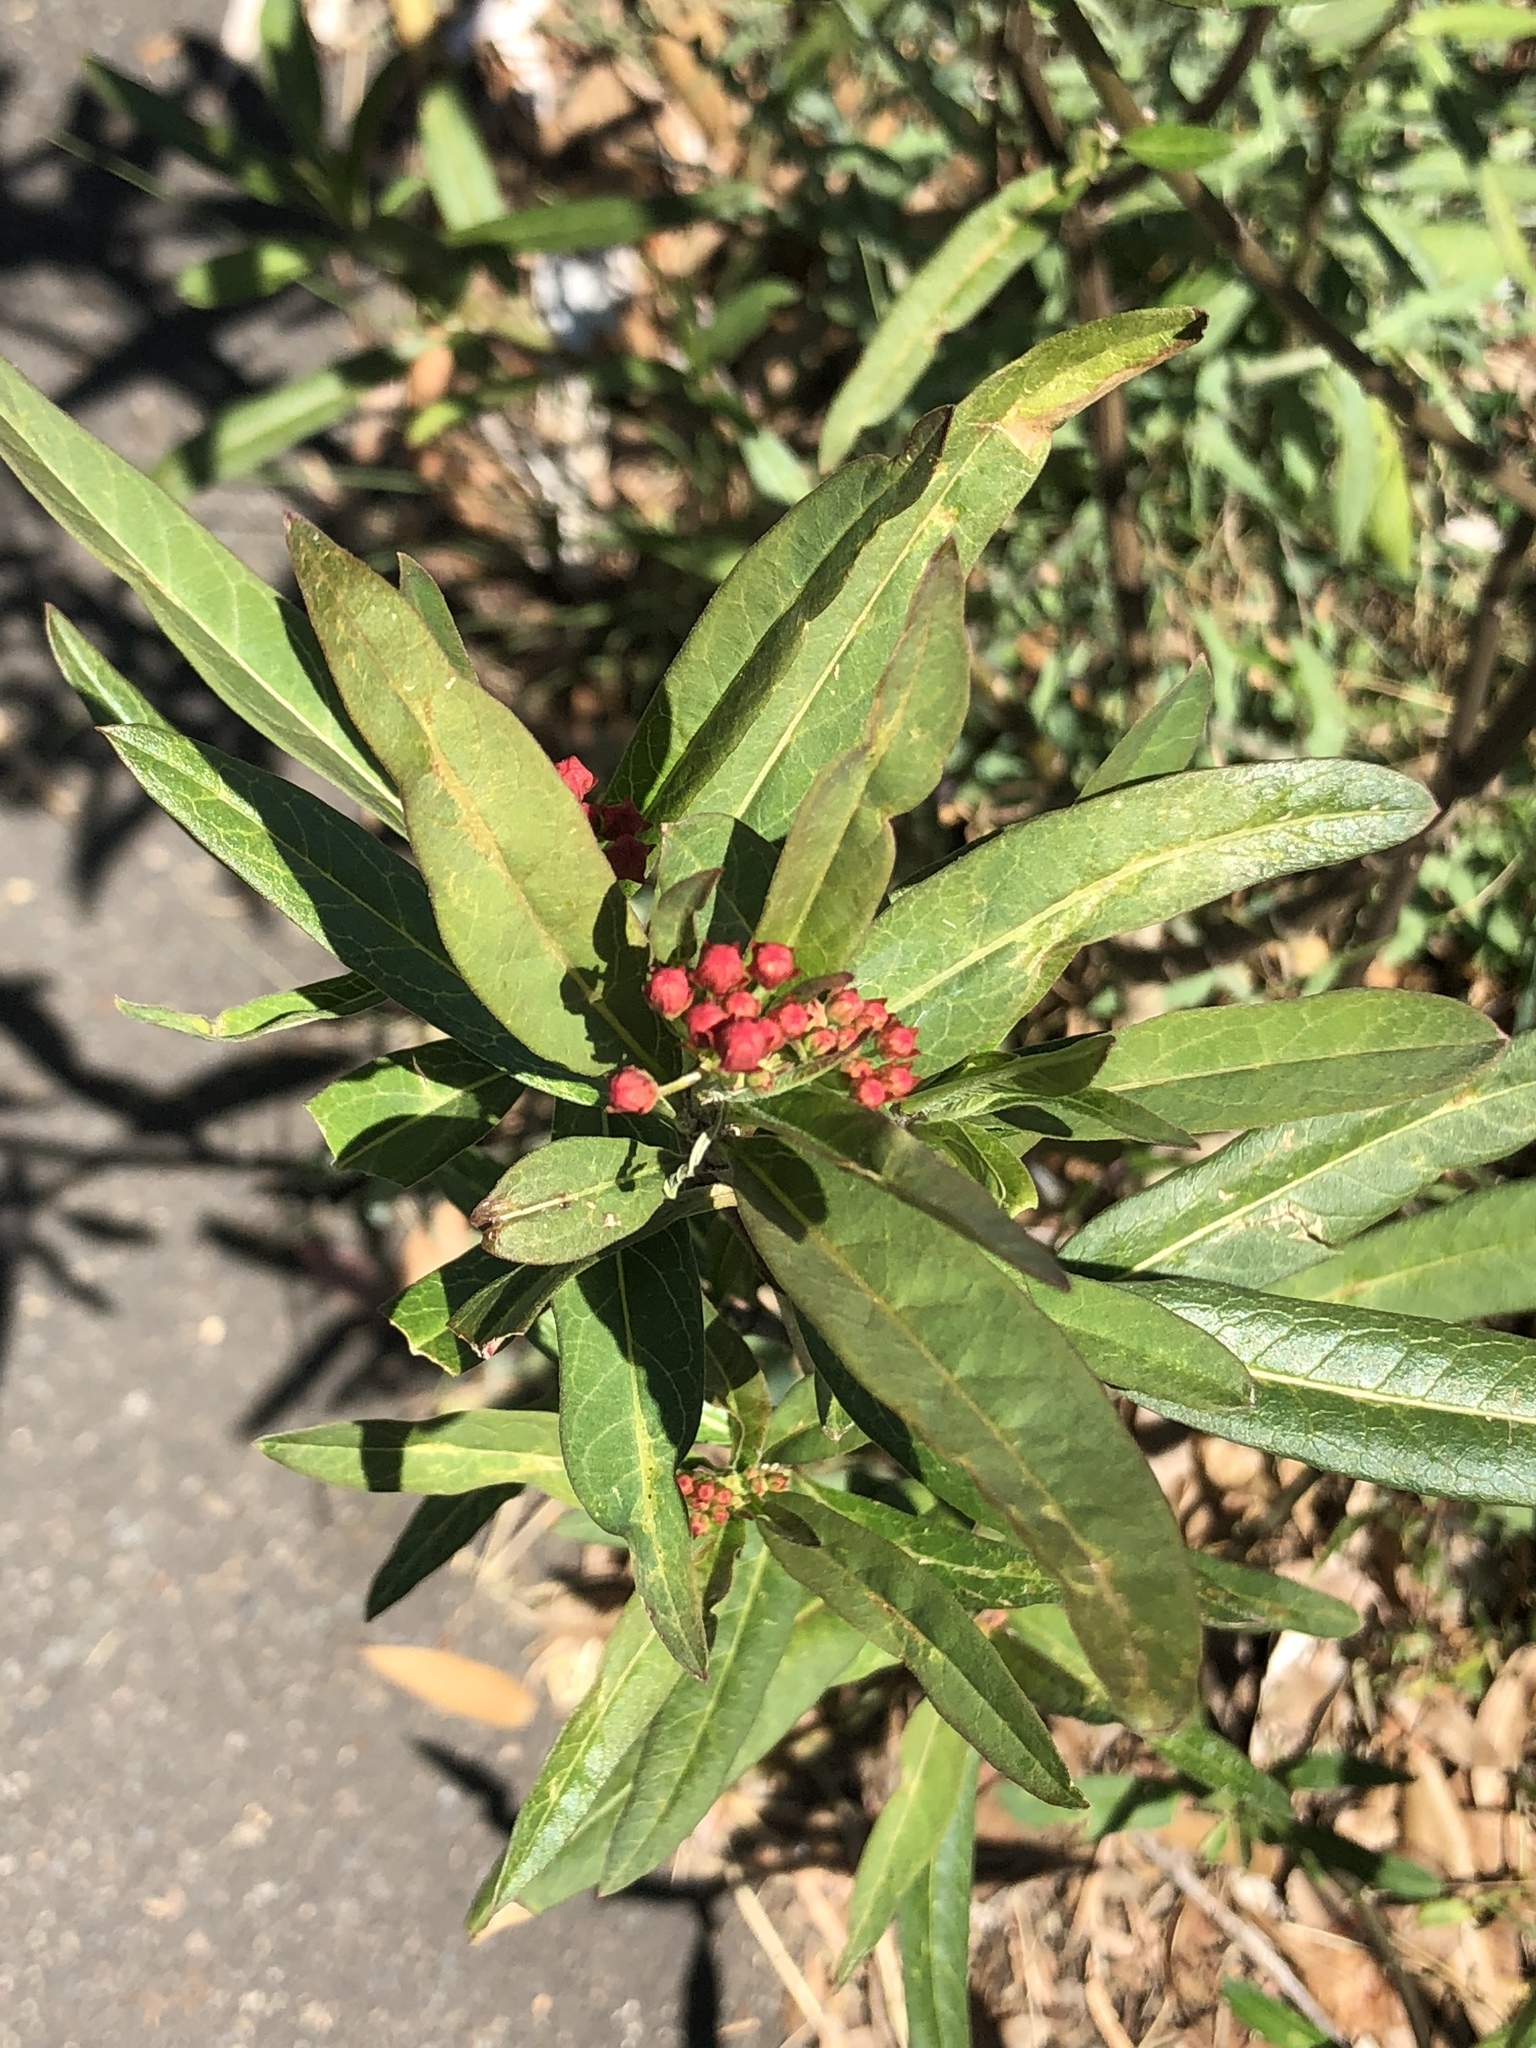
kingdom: Plantae
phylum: Tracheophyta
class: Magnoliopsida
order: Gentianales
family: Apocynaceae
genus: Asclepias
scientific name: Asclepias curassavica
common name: Bloodflower
